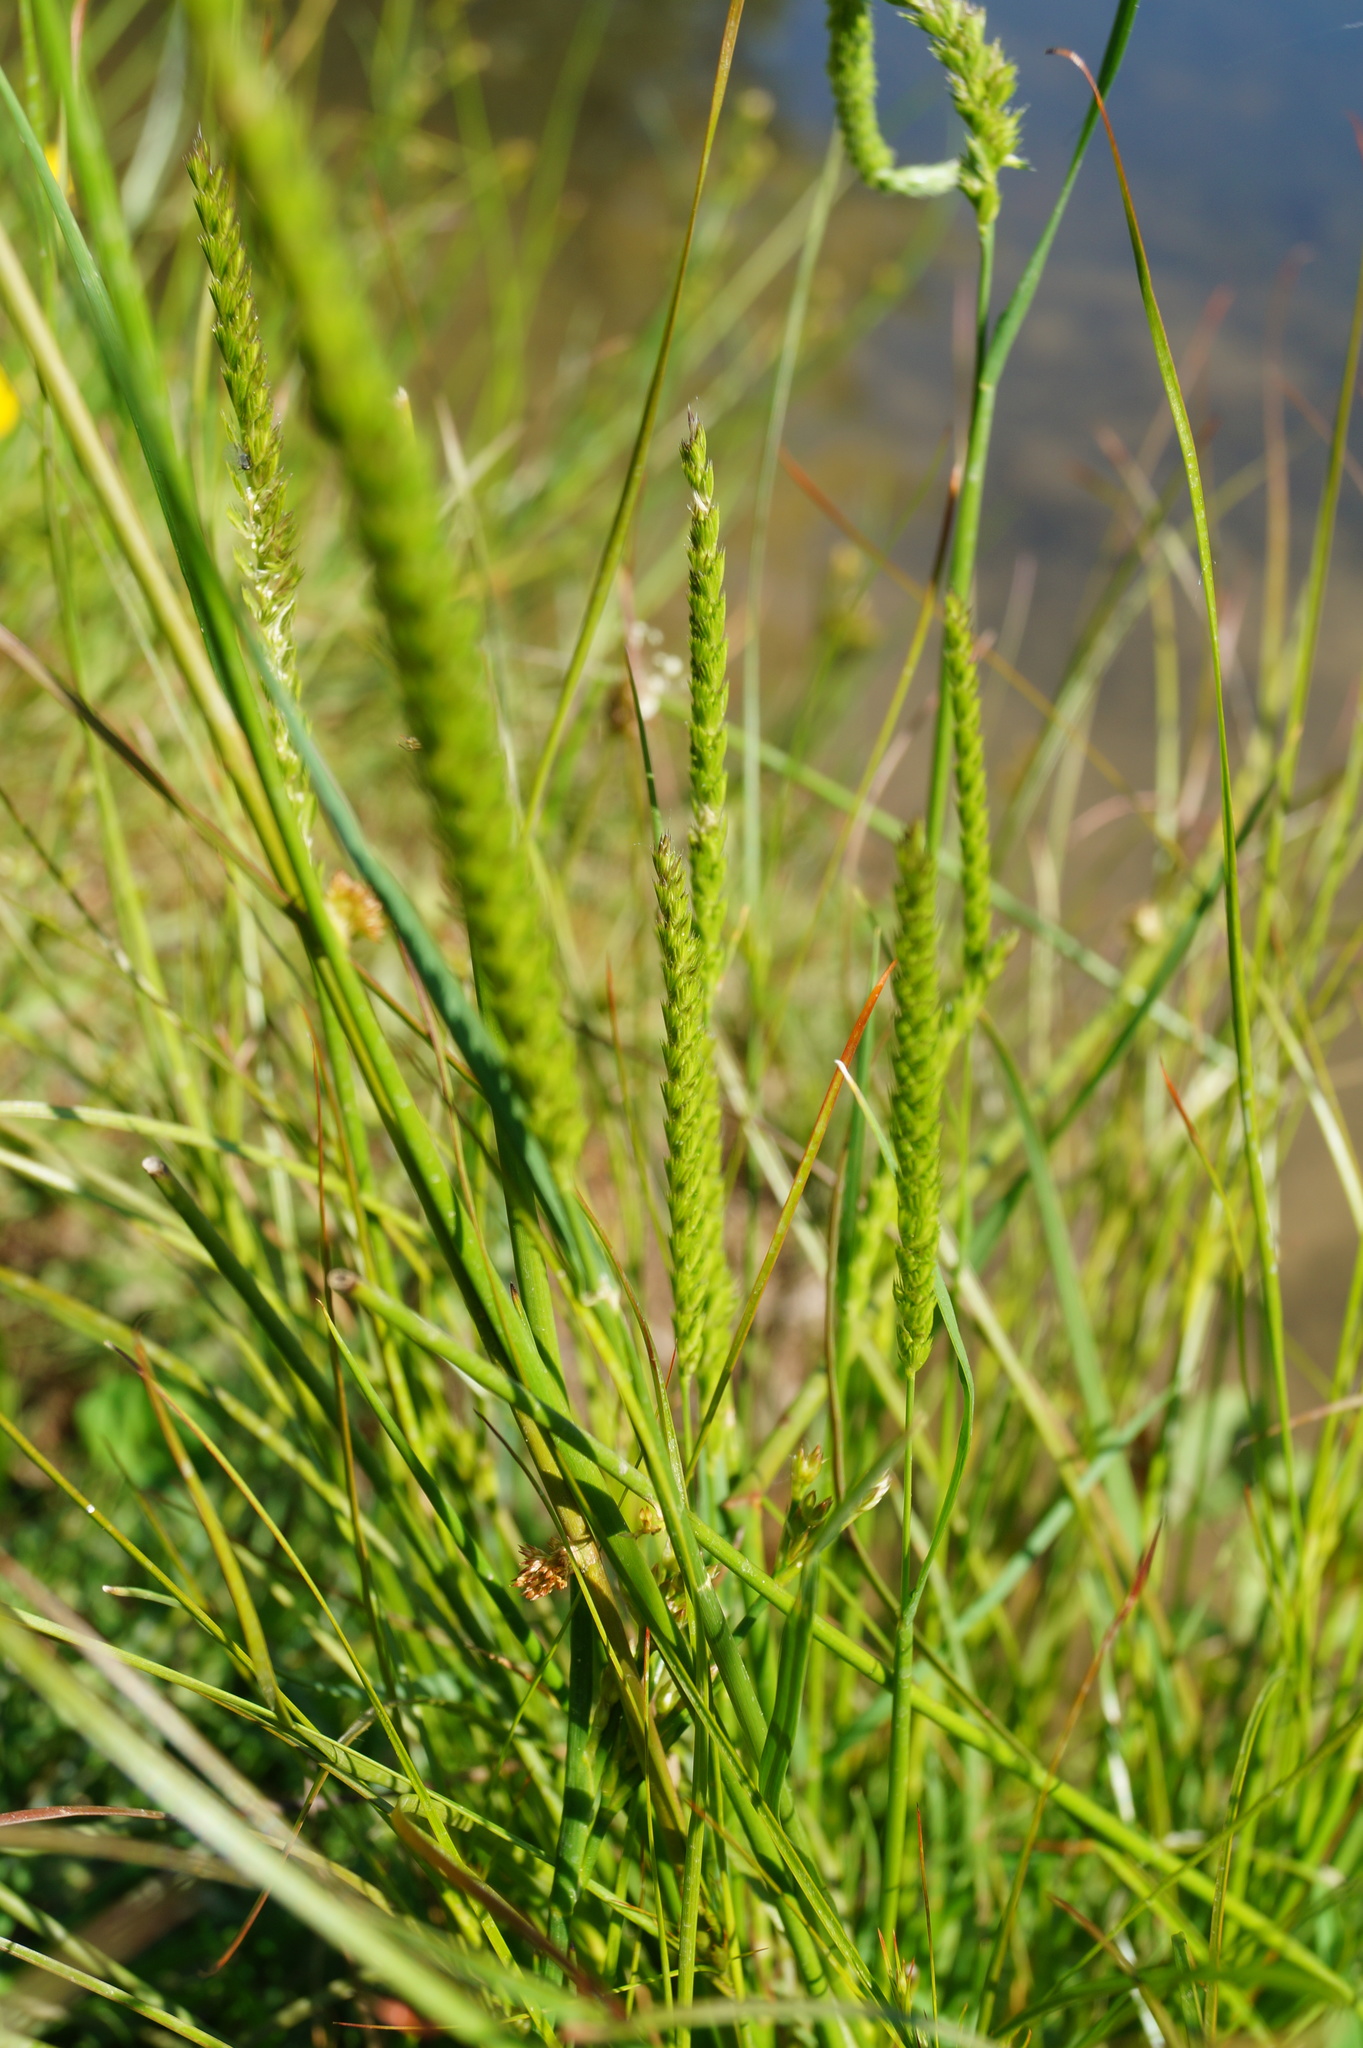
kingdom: Plantae
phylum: Tracheophyta
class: Liliopsida
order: Poales
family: Poaceae
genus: Cynosurus
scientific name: Cynosurus cristatus
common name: Crested dog's-tail
